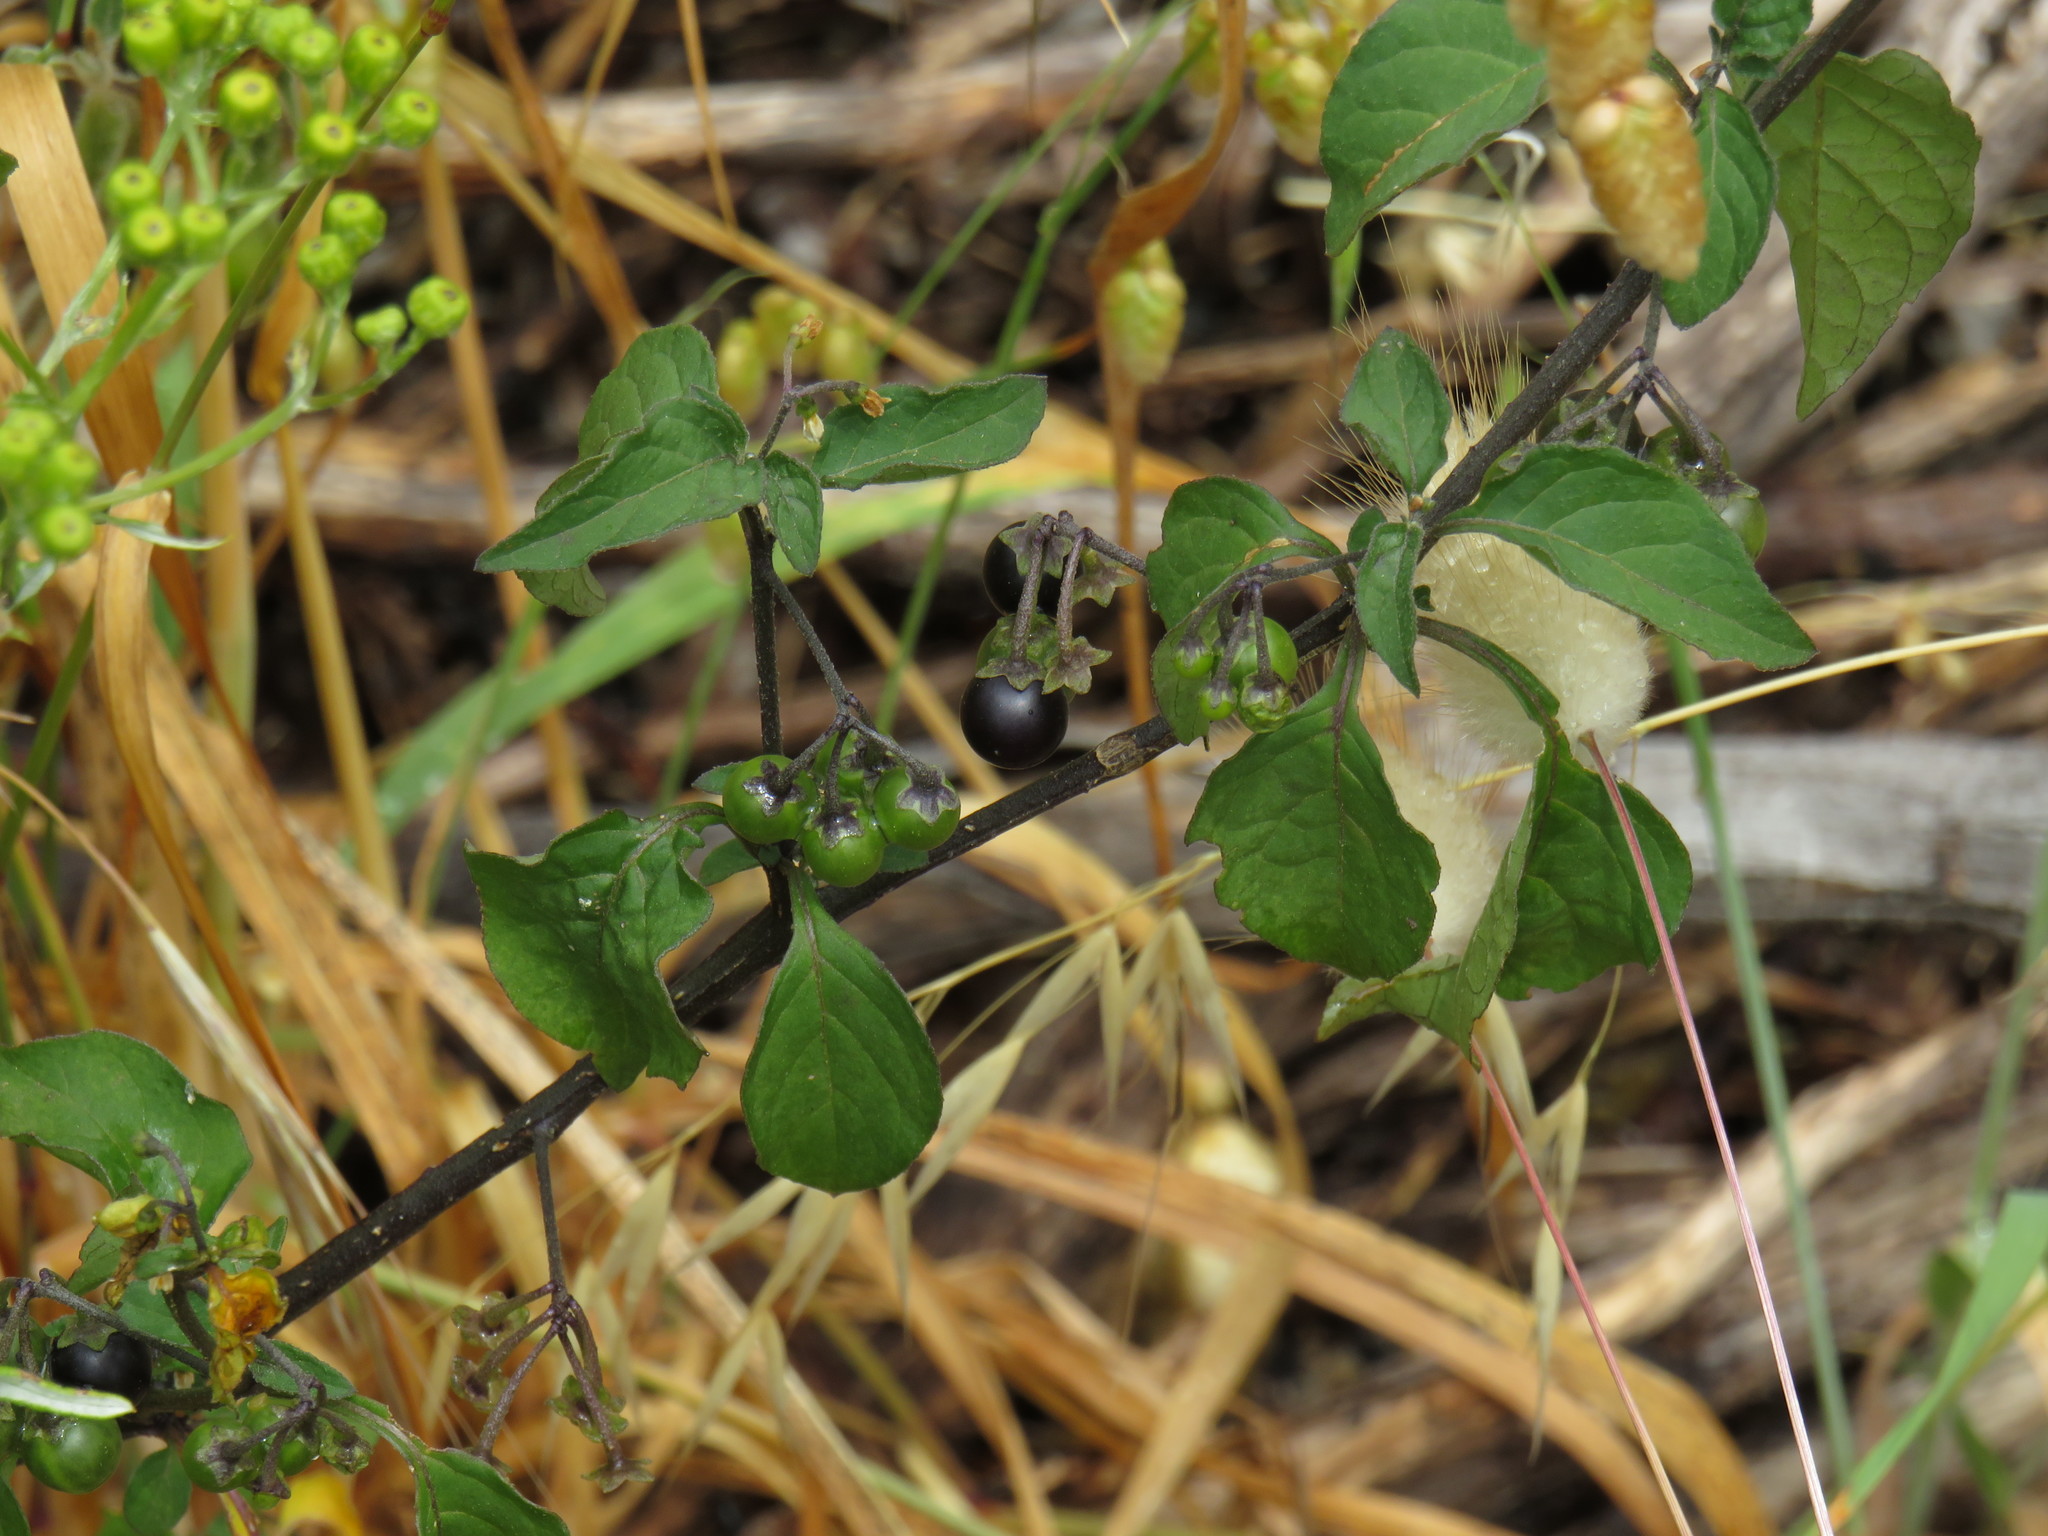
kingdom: Plantae
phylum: Tracheophyta
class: Magnoliopsida
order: Solanales
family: Solanaceae
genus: Solanum
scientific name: Solanum nigrum
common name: Black nightshade
